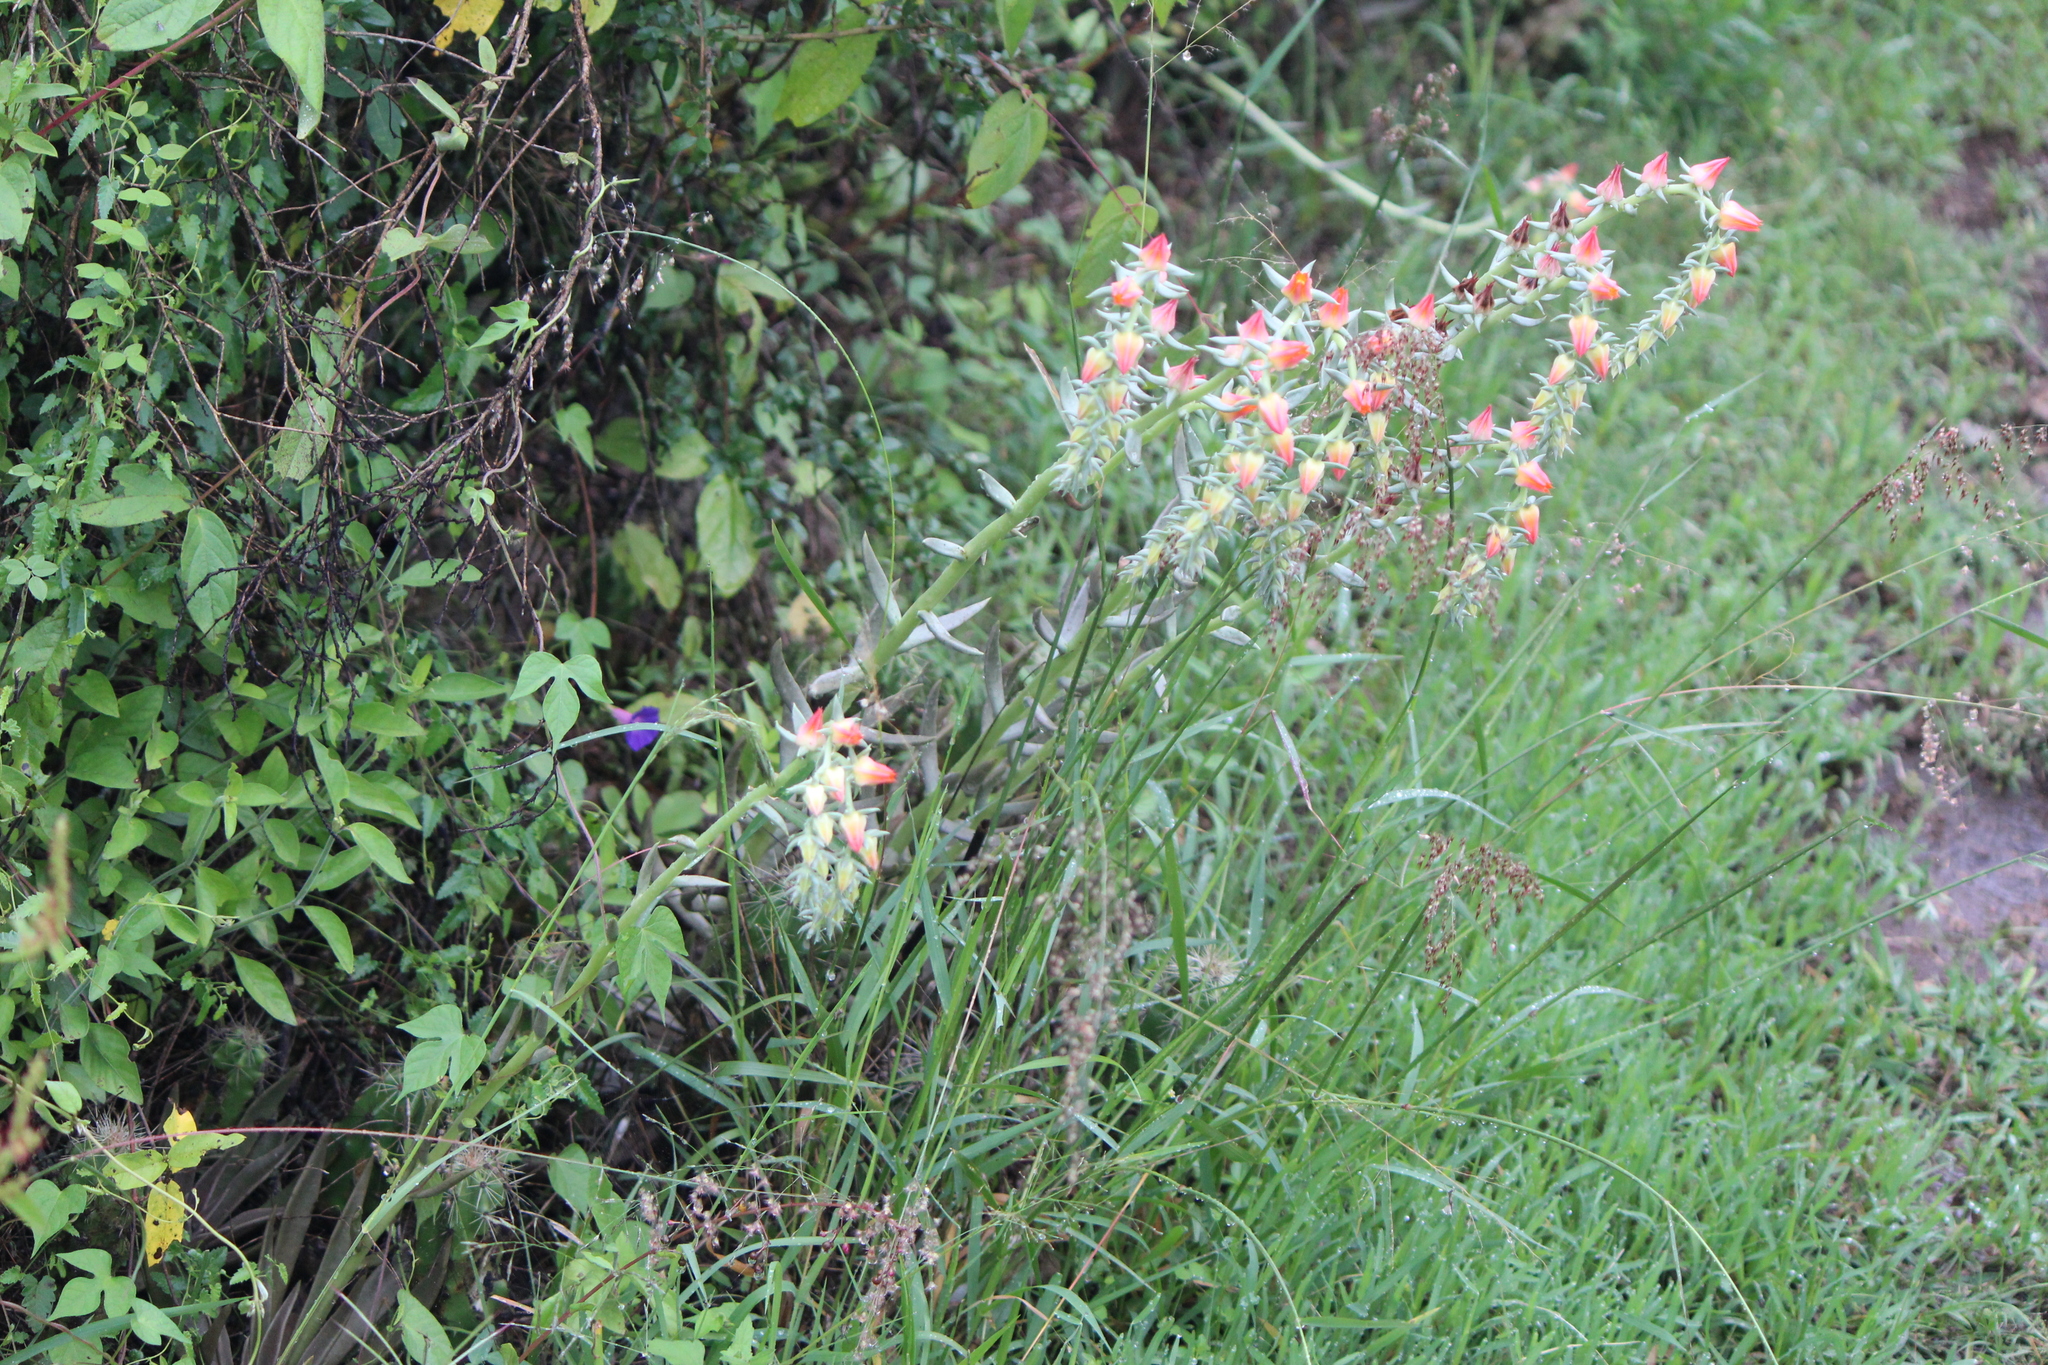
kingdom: Plantae
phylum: Tracheophyta
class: Magnoliopsida
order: Saxifragales
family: Crassulaceae
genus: Echeveria
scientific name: Echeveria bifida
